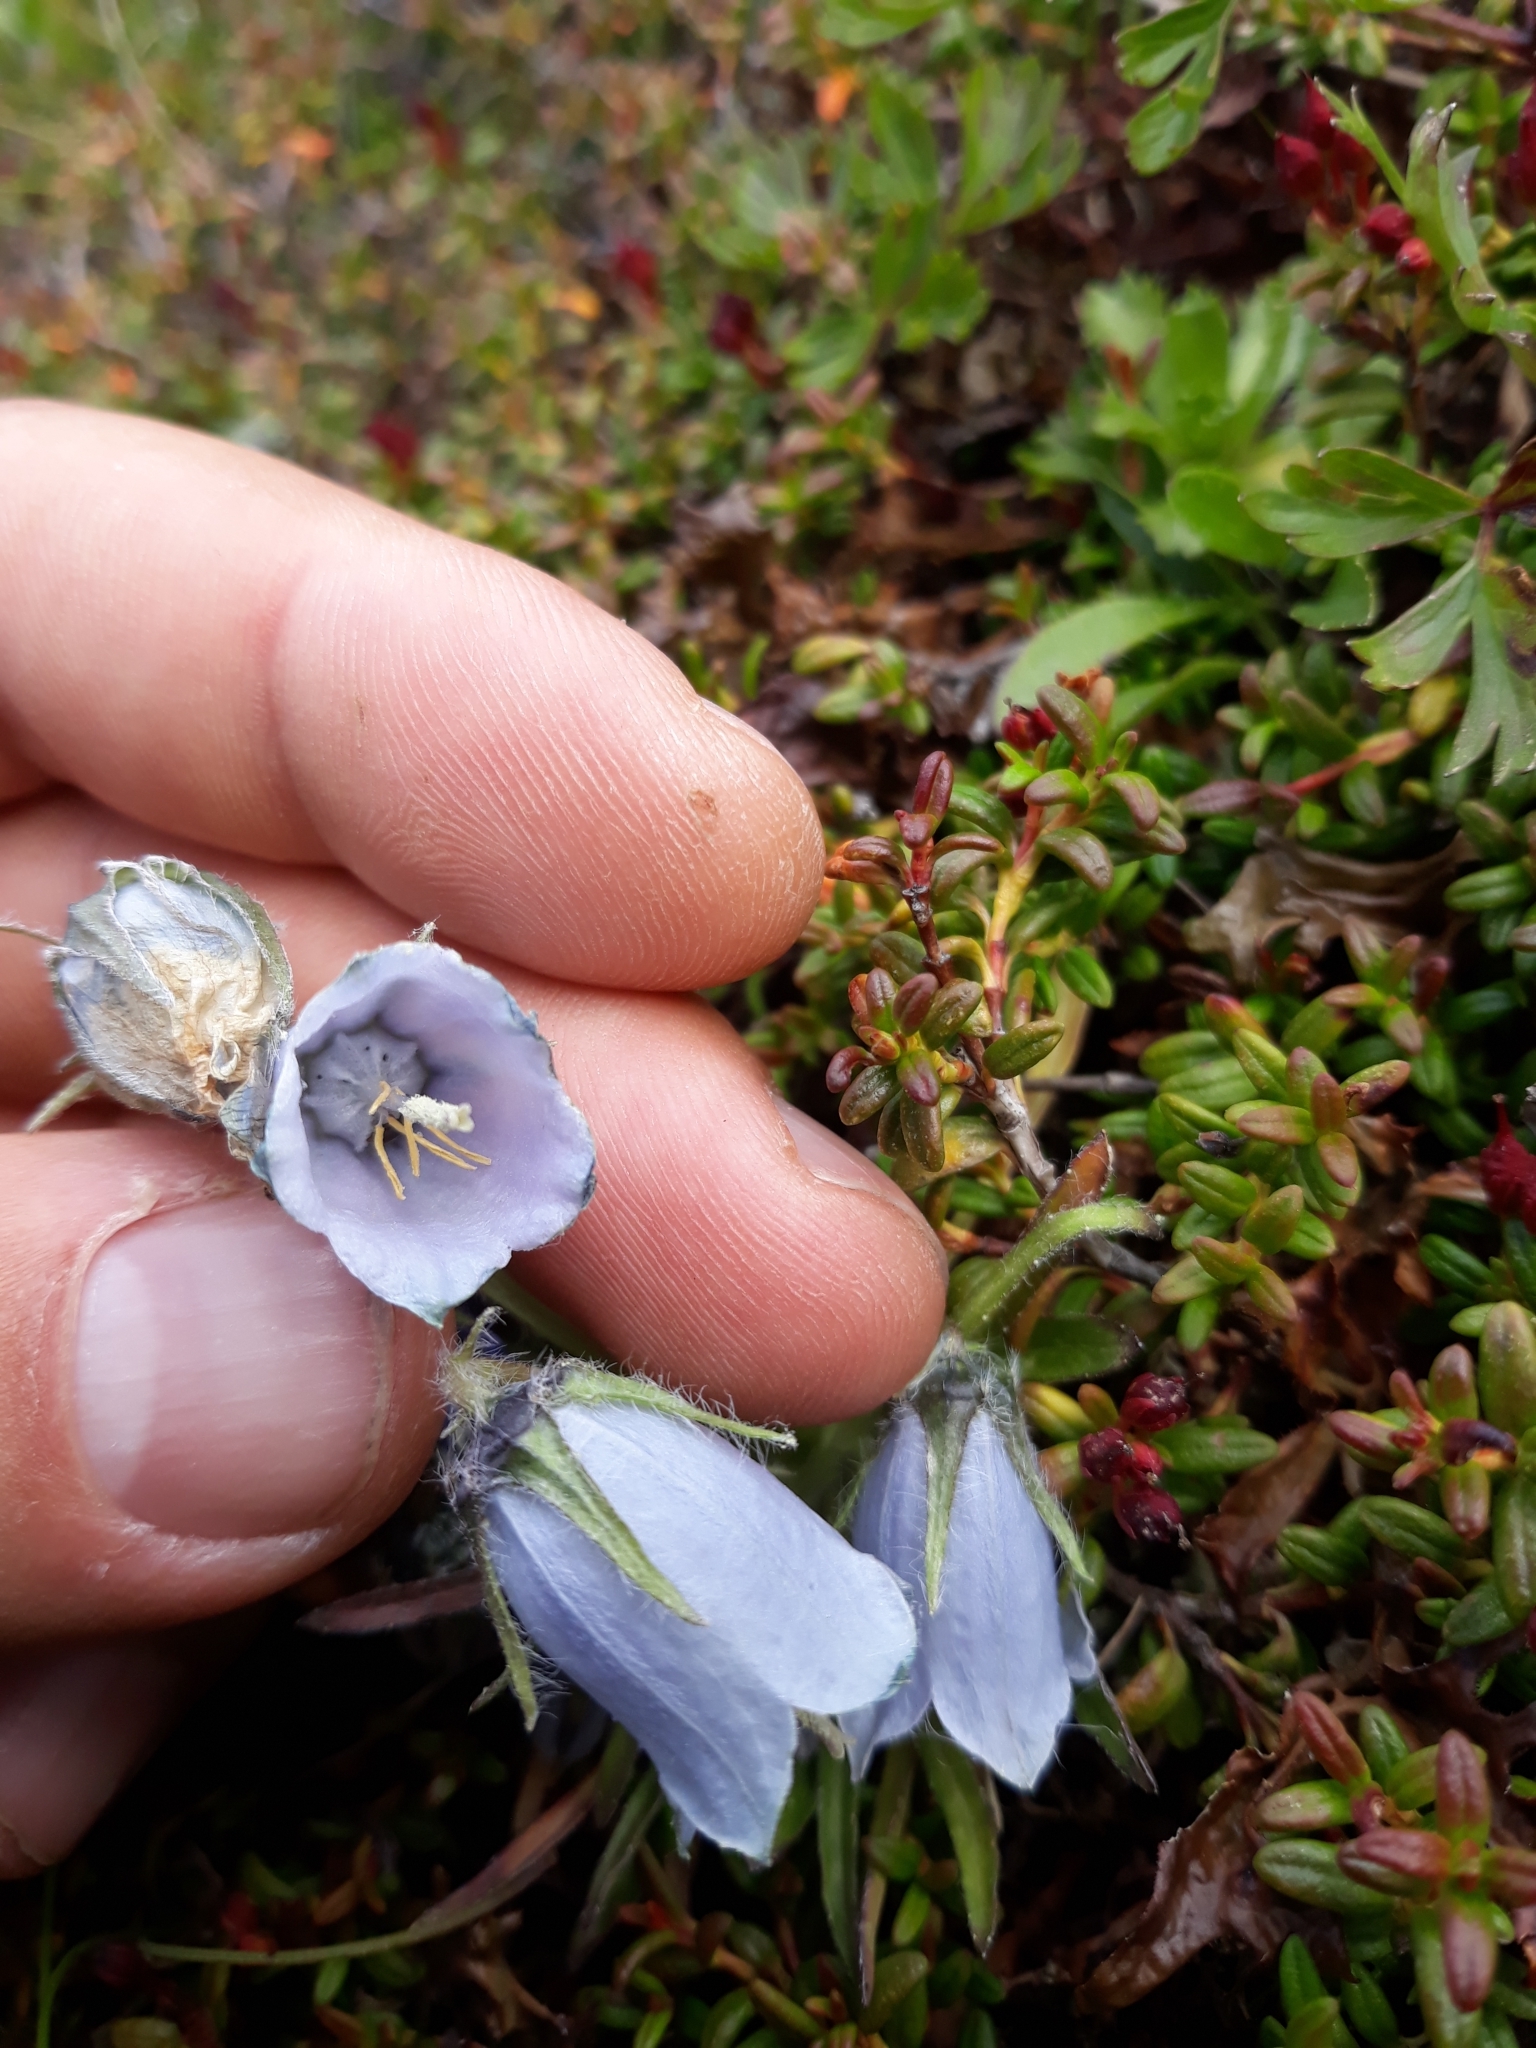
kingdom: Plantae
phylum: Tracheophyta
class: Magnoliopsida
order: Asterales
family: Campanulaceae
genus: Campanula
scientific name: Campanula alpina
